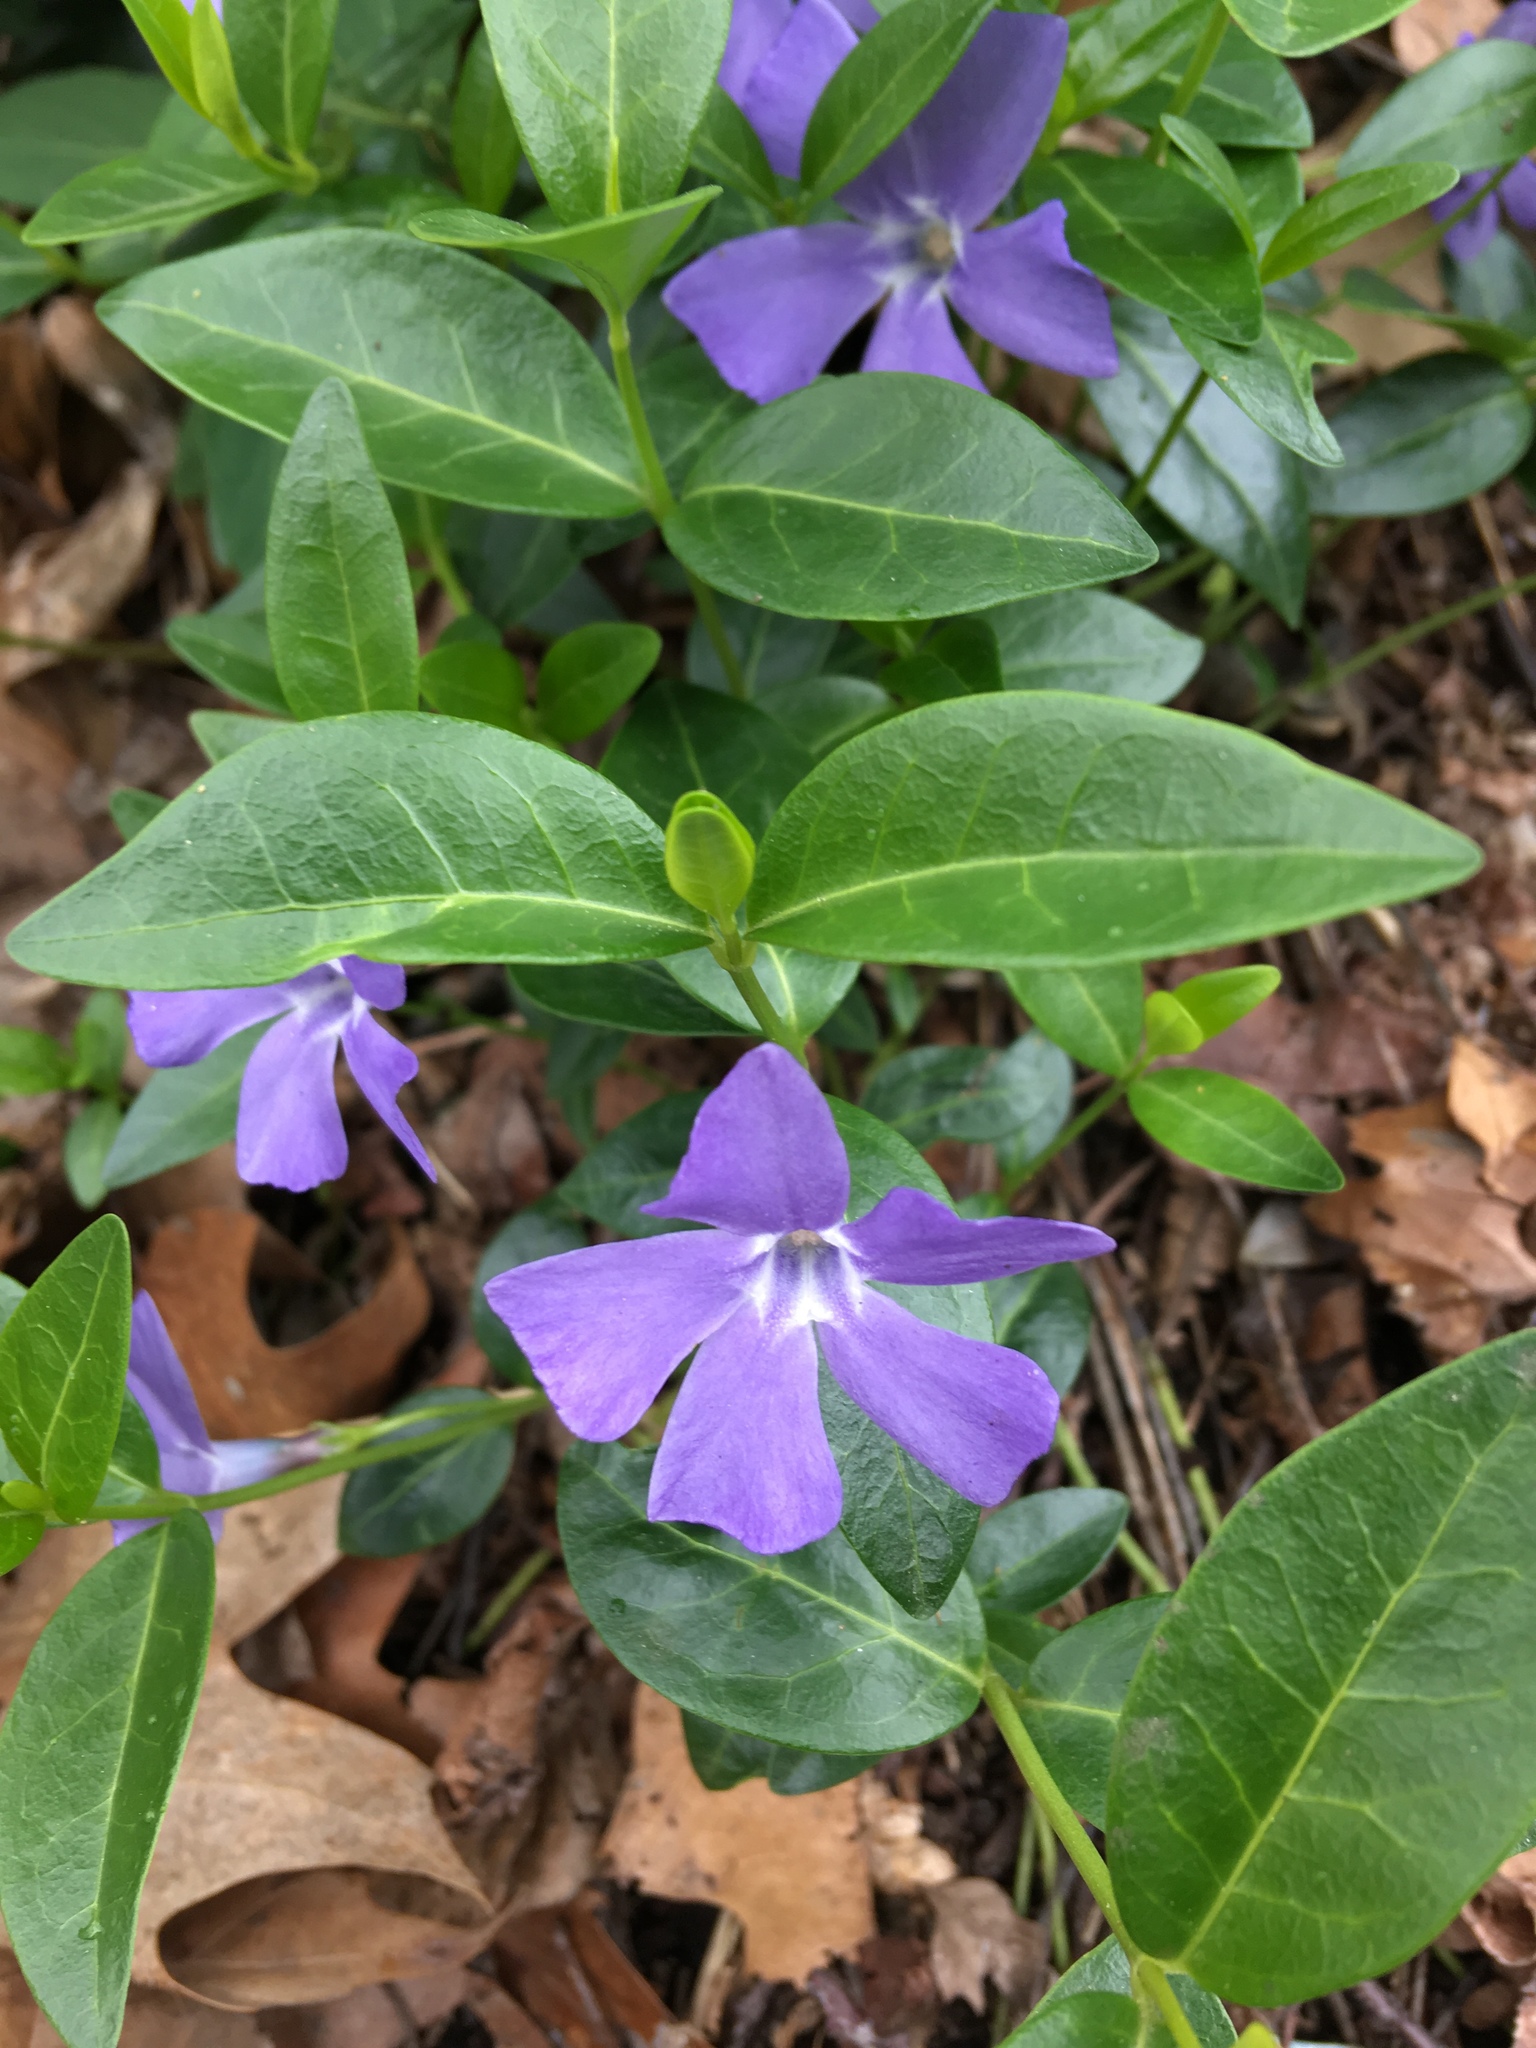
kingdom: Plantae
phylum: Tracheophyta
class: Magnoliopsida
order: Gentianales
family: Apocynaceae
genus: Vinca
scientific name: Vinca minor
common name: Lesser periwinkle
